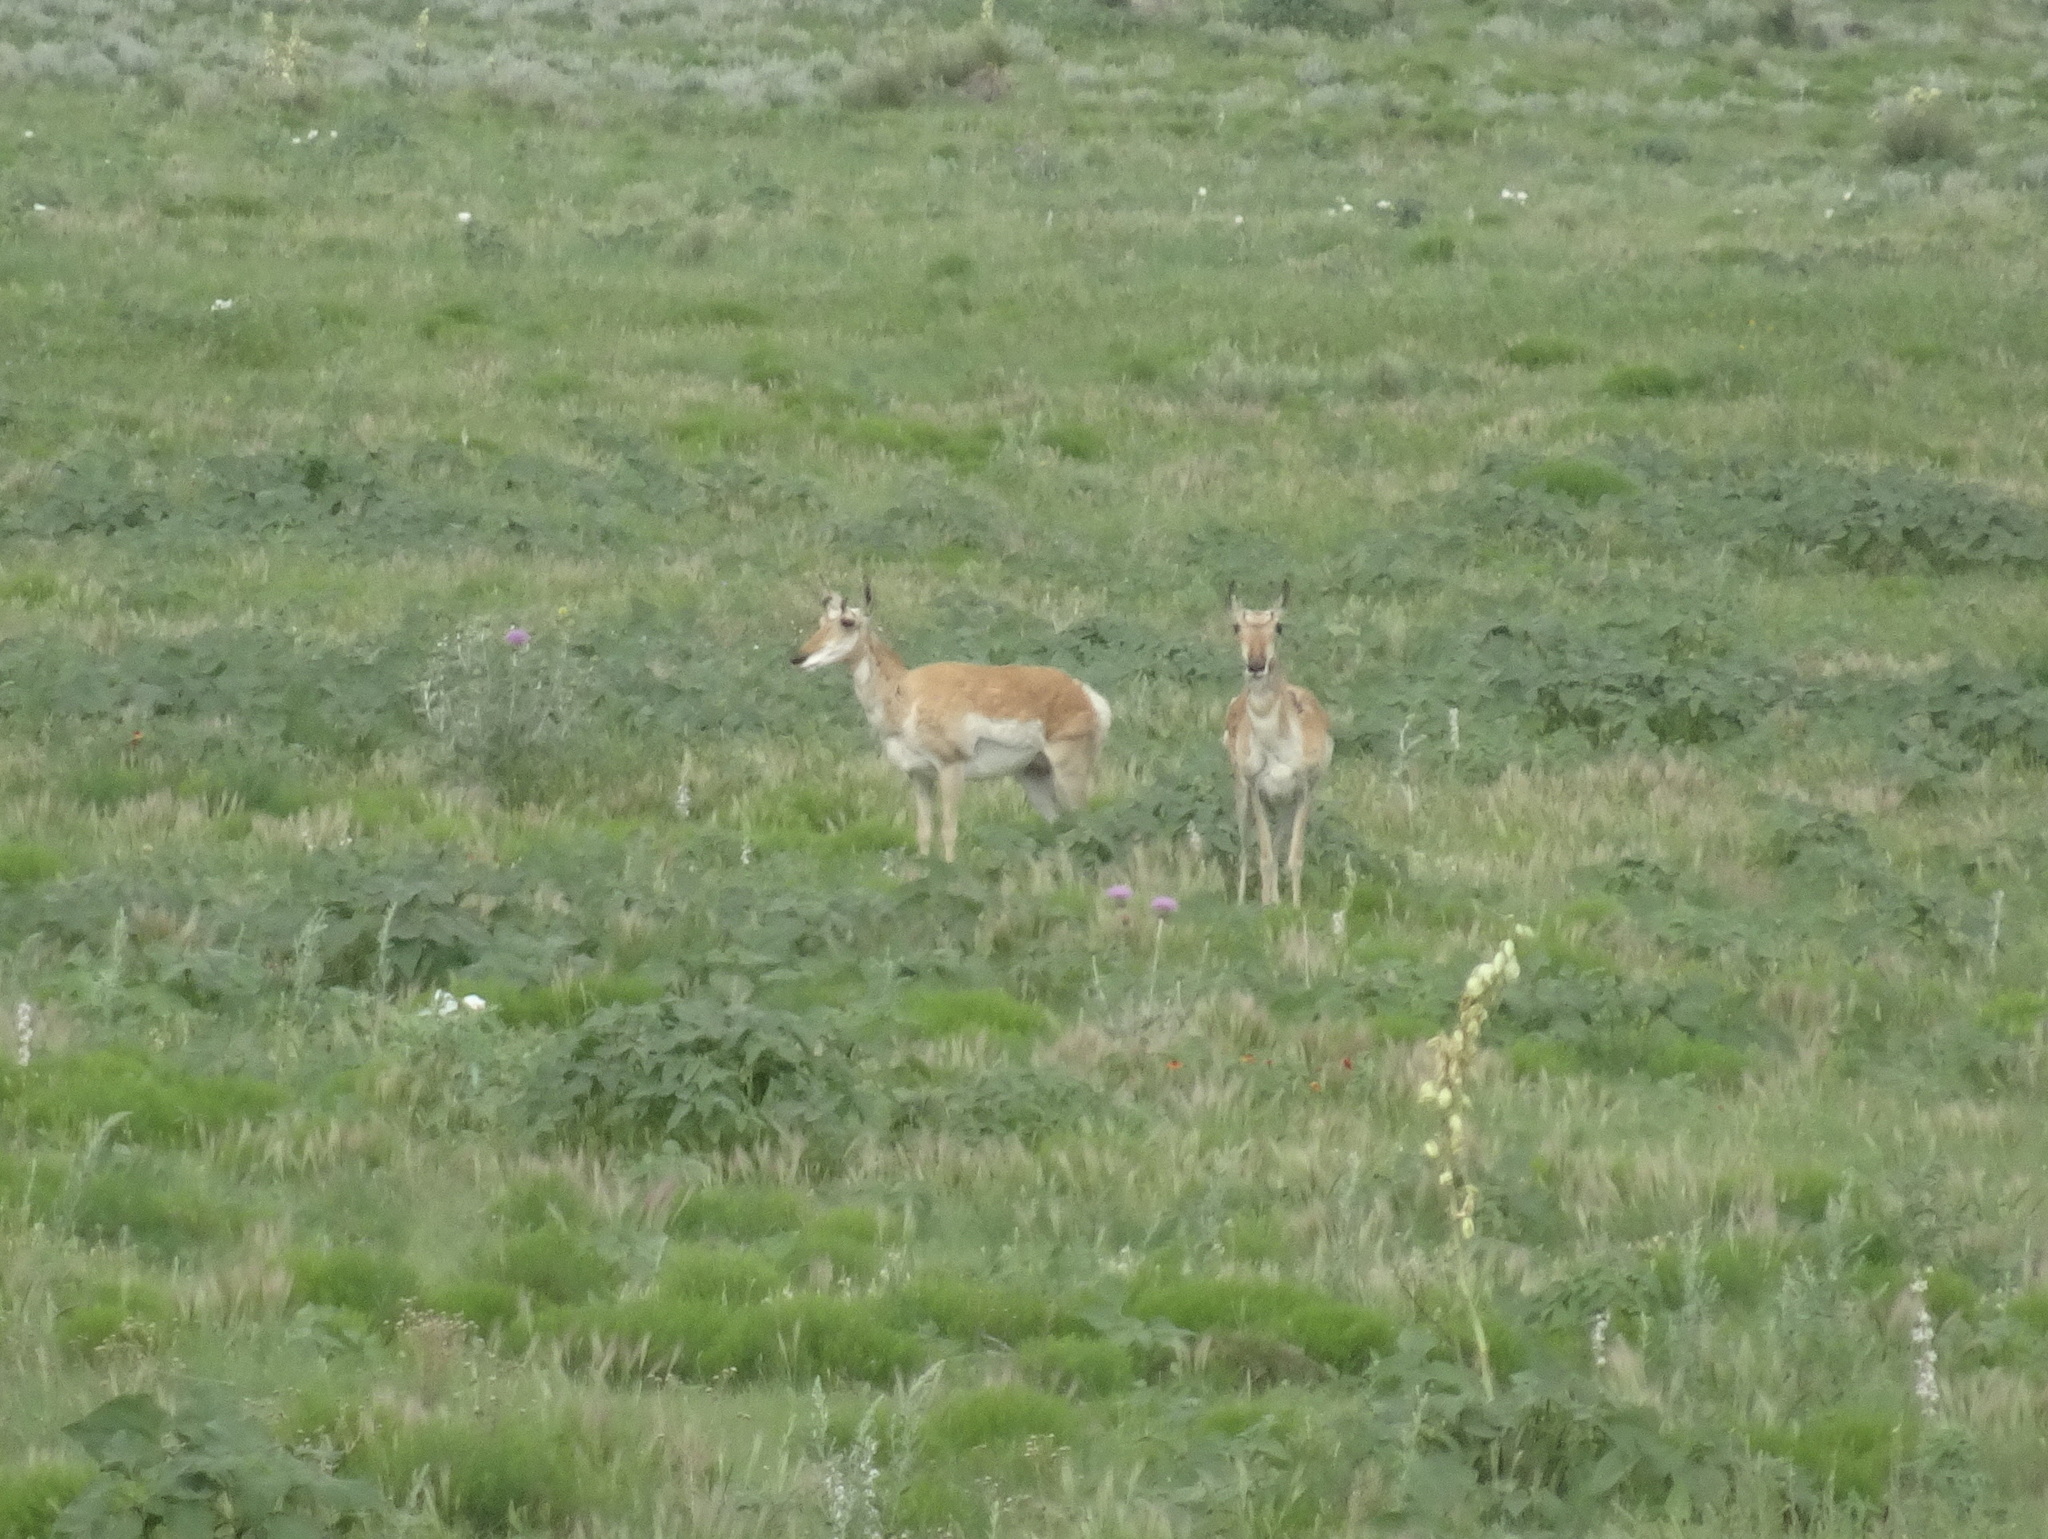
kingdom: Animalia
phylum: Chordata
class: Mammalia
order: Artiodactyla
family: Antilocapridae
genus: Antilocapra
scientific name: Antilocapra americana
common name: Pronghorn
